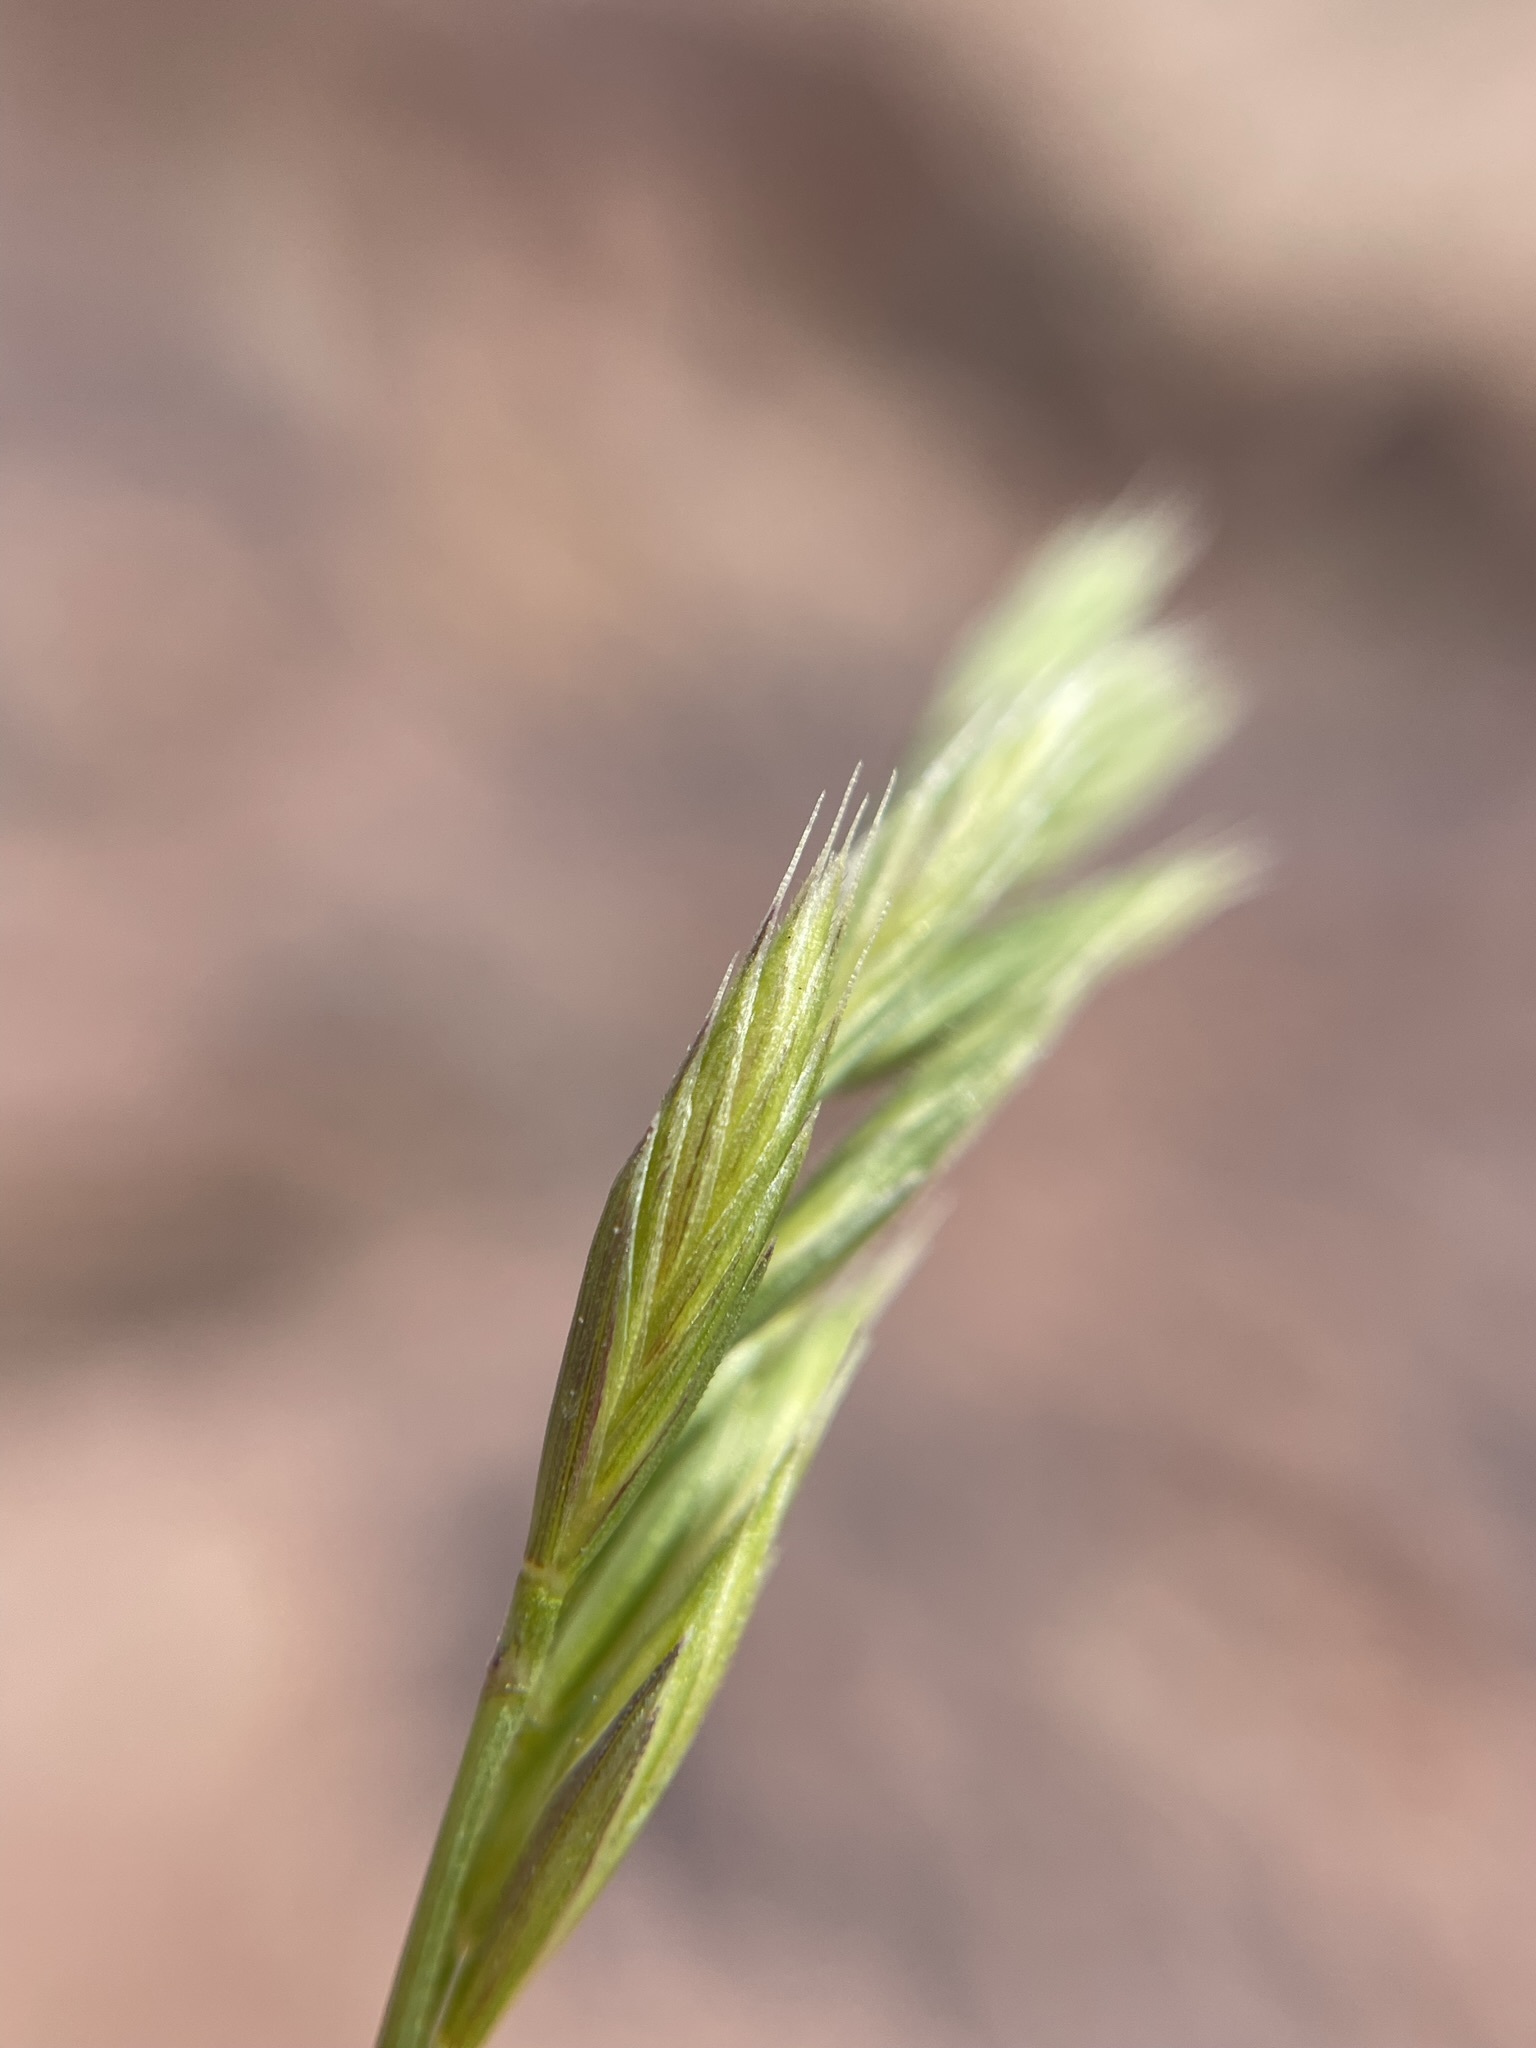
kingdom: Plantae
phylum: Tracheophyta
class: Liliopsida
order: Poales
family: Poaceae
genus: Festuca
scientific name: Festuca octoflora
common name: Sixweeks grass
